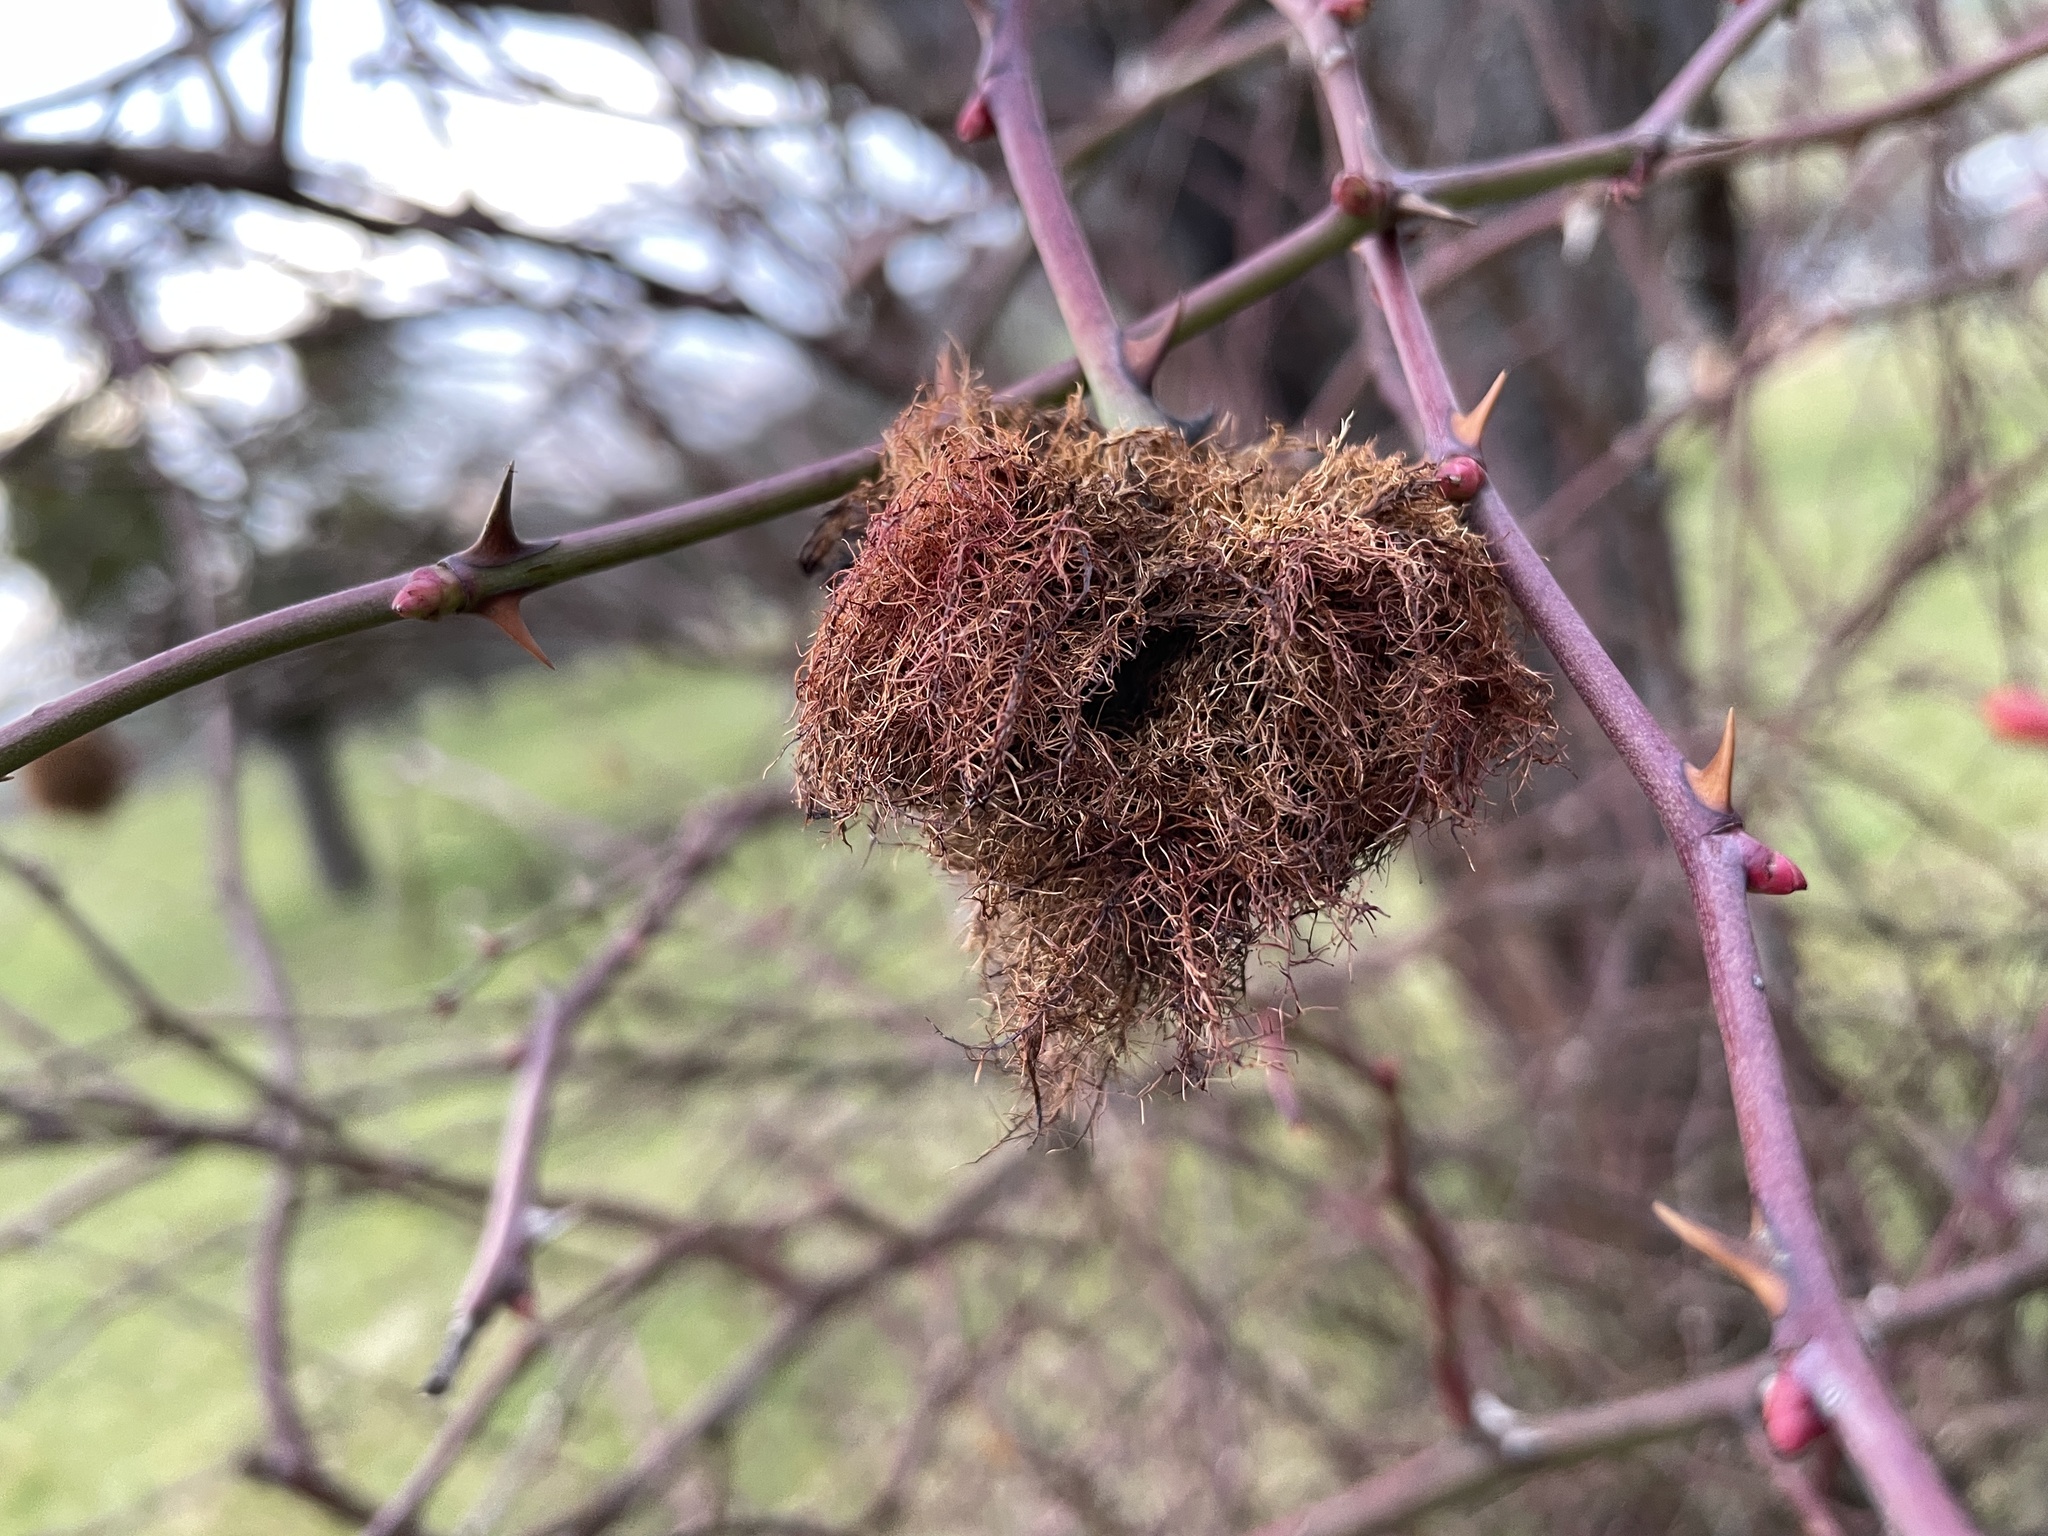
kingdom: Animalia
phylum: Arthropoda
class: Insecta
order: Hymenoptera
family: Cynipidae
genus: Diplolepis
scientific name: Diplolepis rosae
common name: Bedeguar gall
